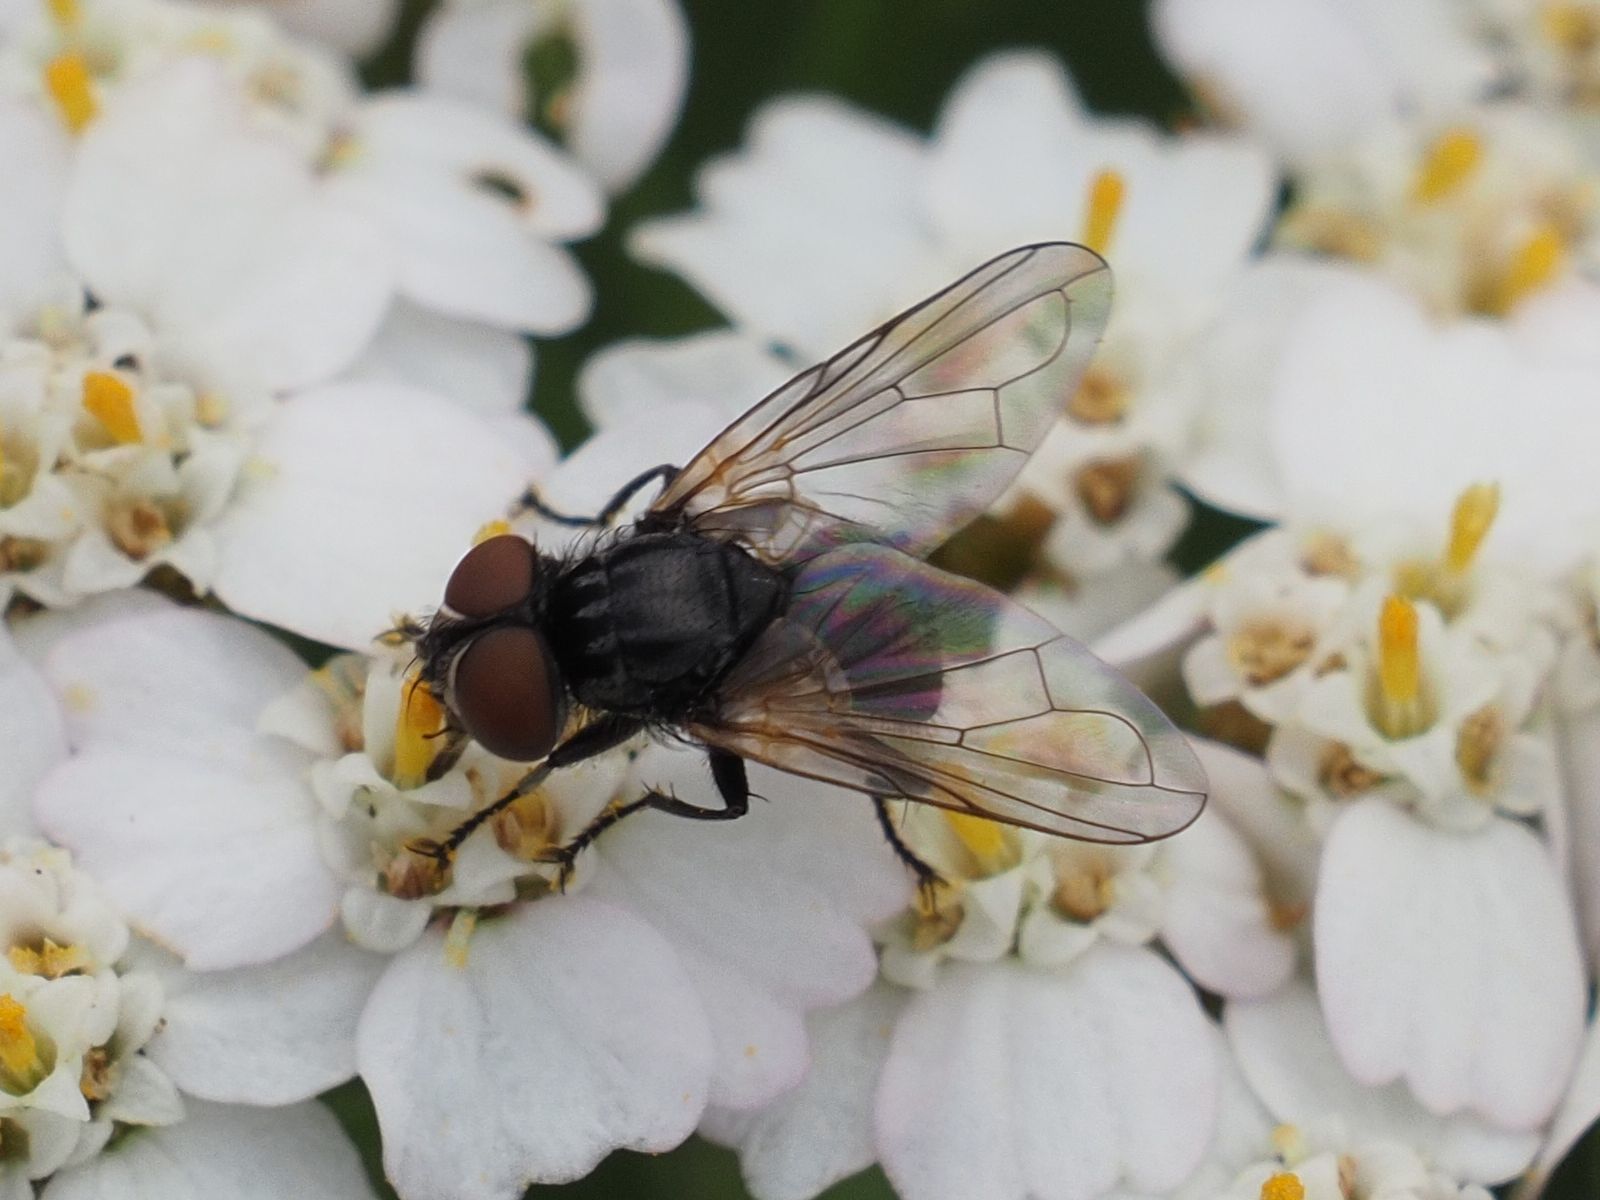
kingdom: Animalia
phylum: Arthropoda
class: Insecta
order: Diptera
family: Tachinidae
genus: Phasia
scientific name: Phasia obesa
